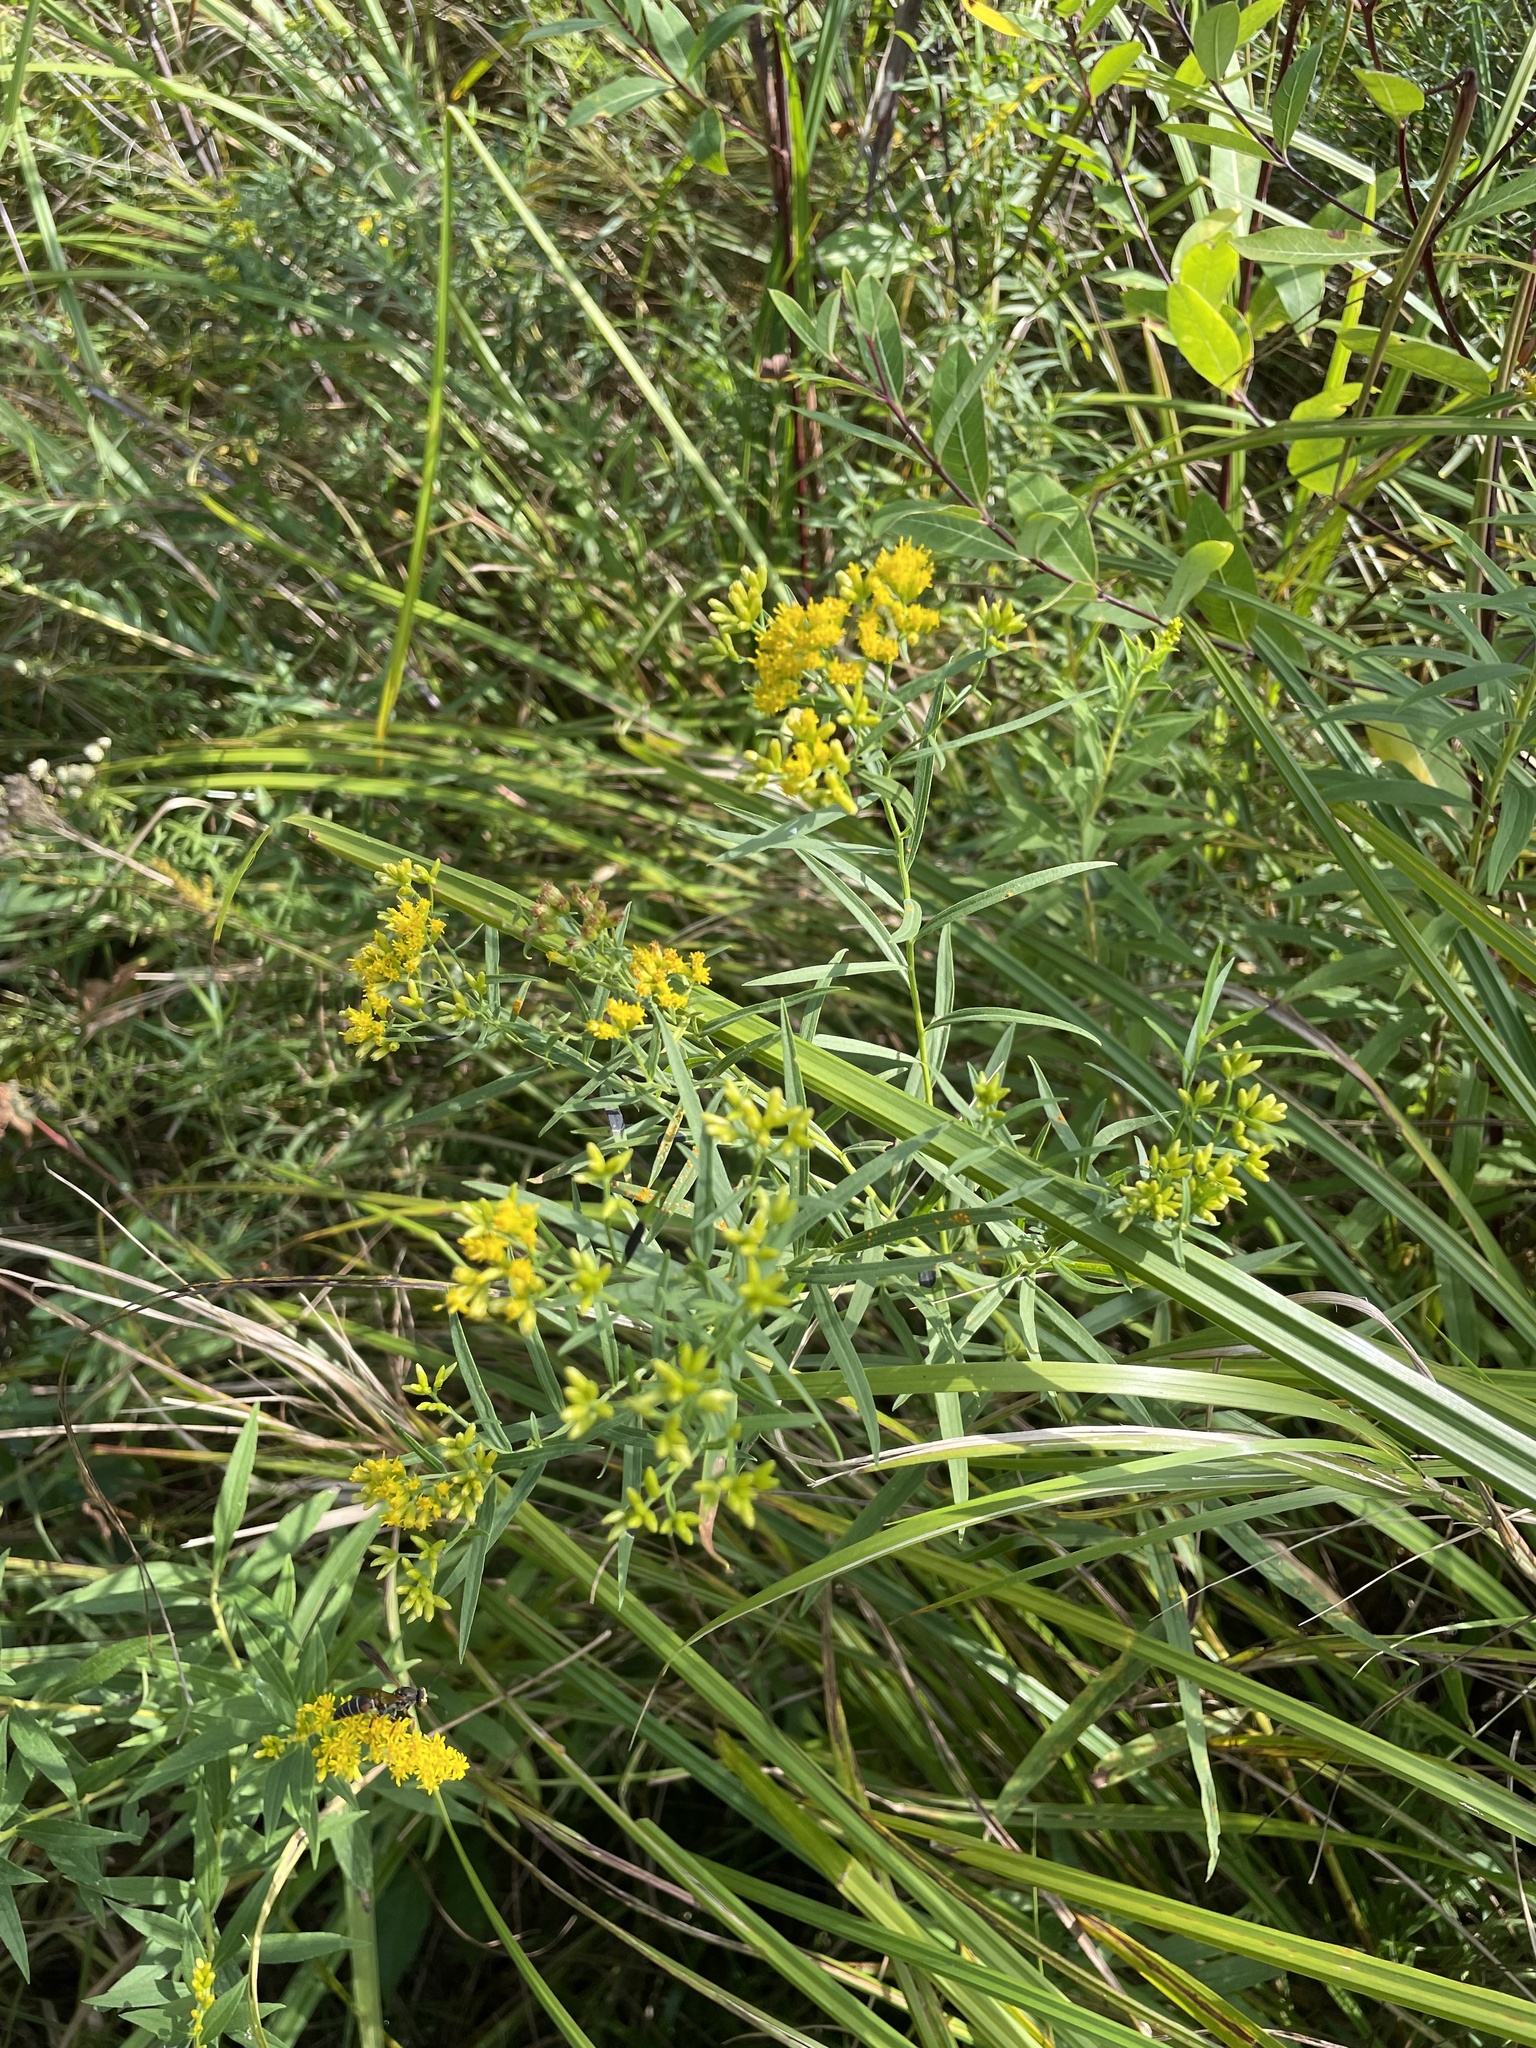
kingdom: Plantae
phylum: Tracheophyta
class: Magnoliopsida
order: Asterales
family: Asteraceae
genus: Euthamia
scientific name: Euthamia graminifolia
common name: Common goldentop
